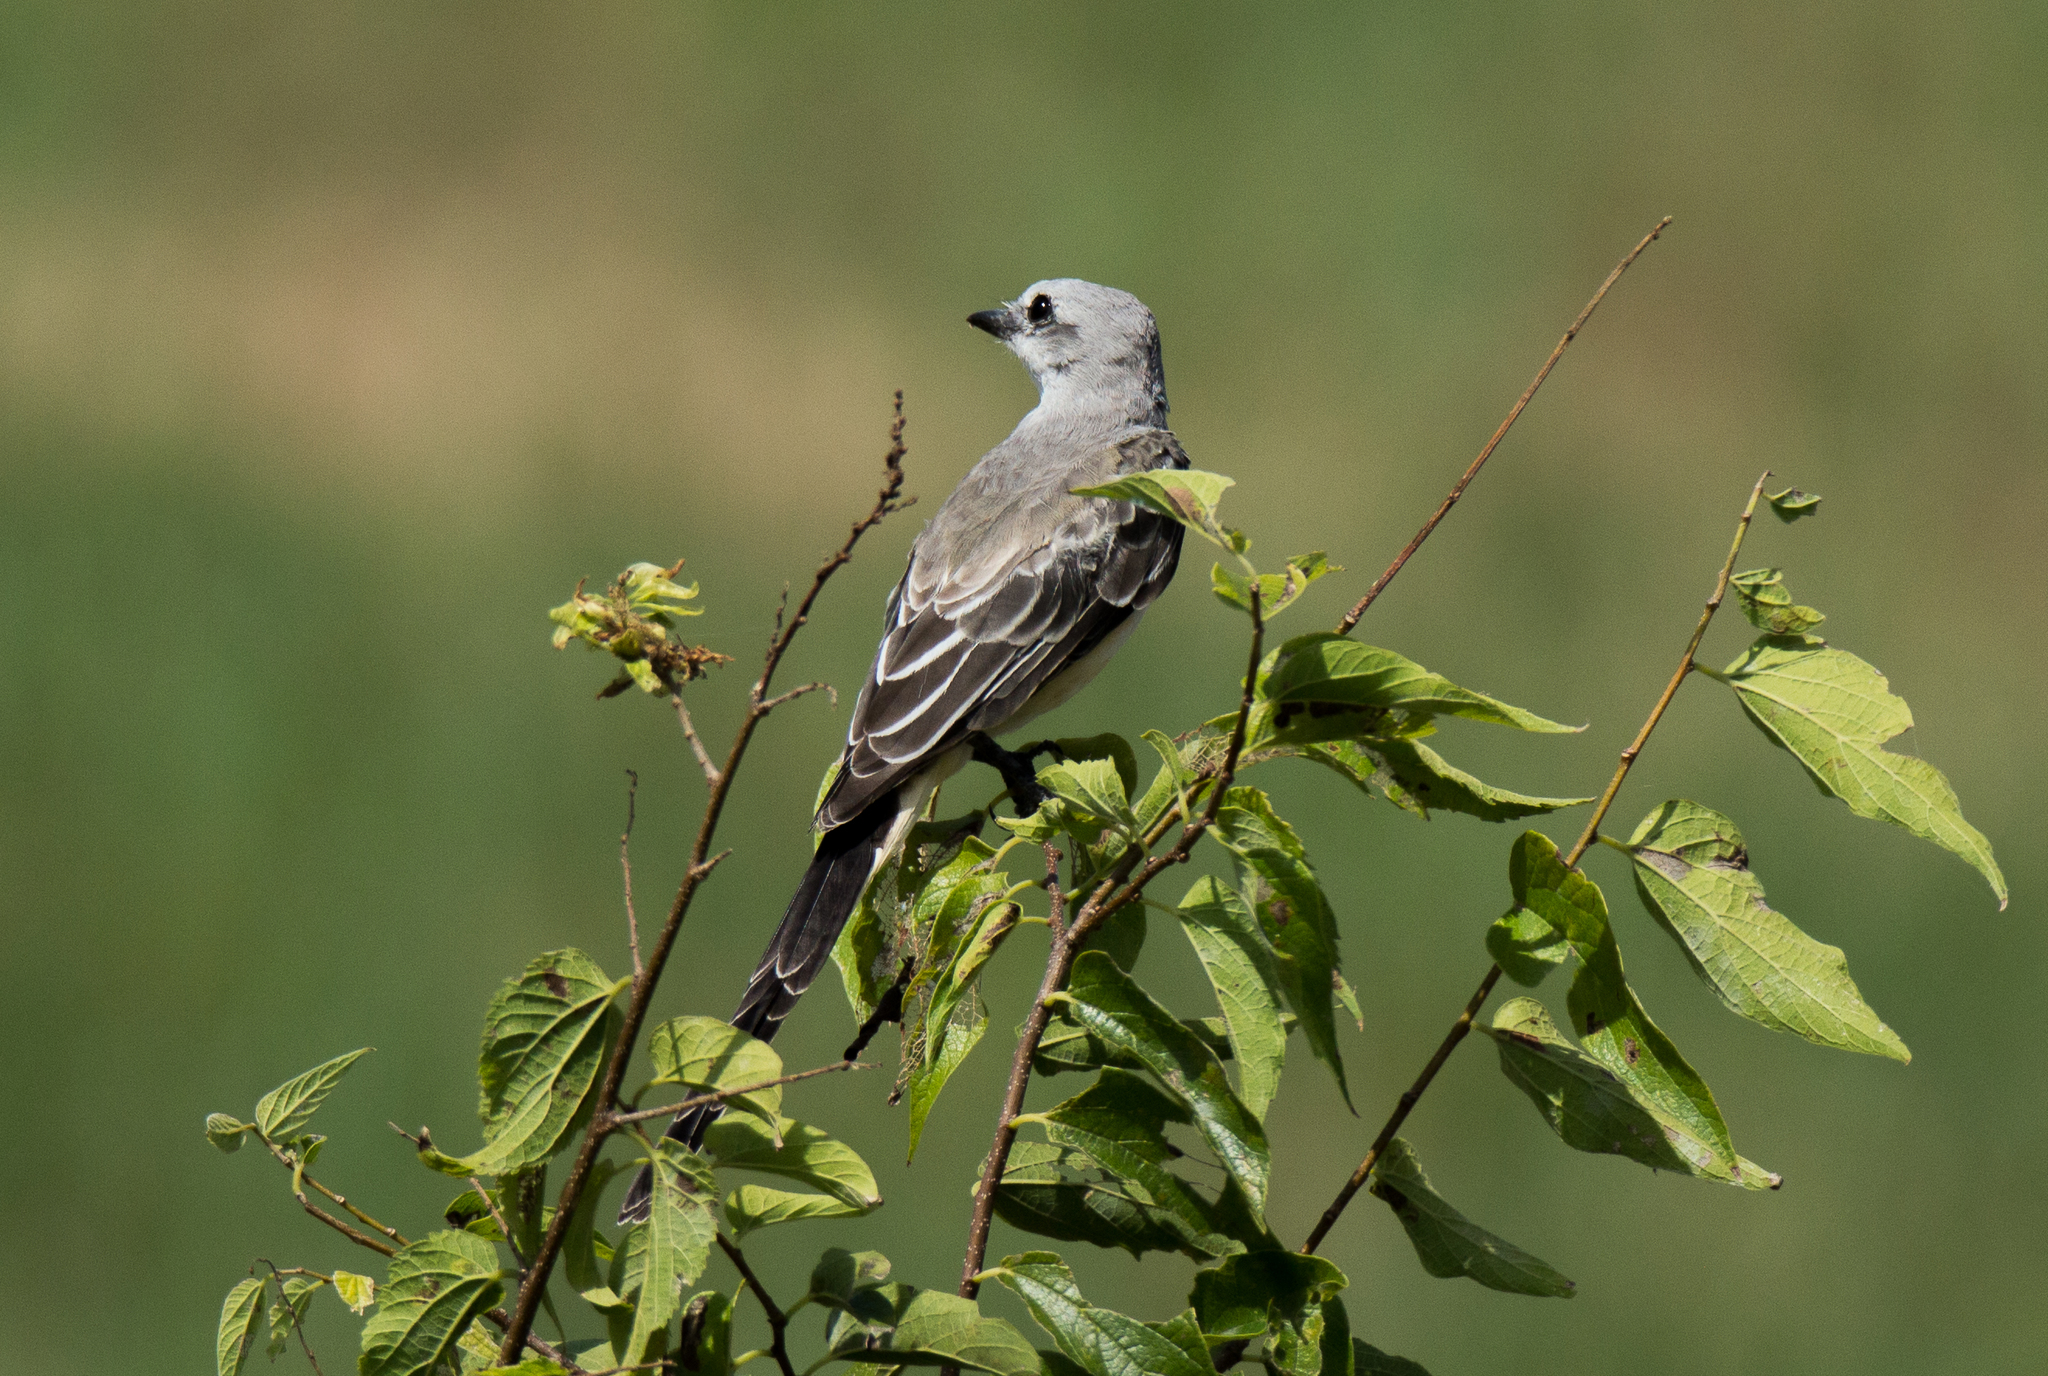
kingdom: Animalia
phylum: Chordata
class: Aves
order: Passeriformes
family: Tyrannidae
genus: Tyrannus
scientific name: Tyrannus forficatus
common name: Scissor-tailed flycatcher
